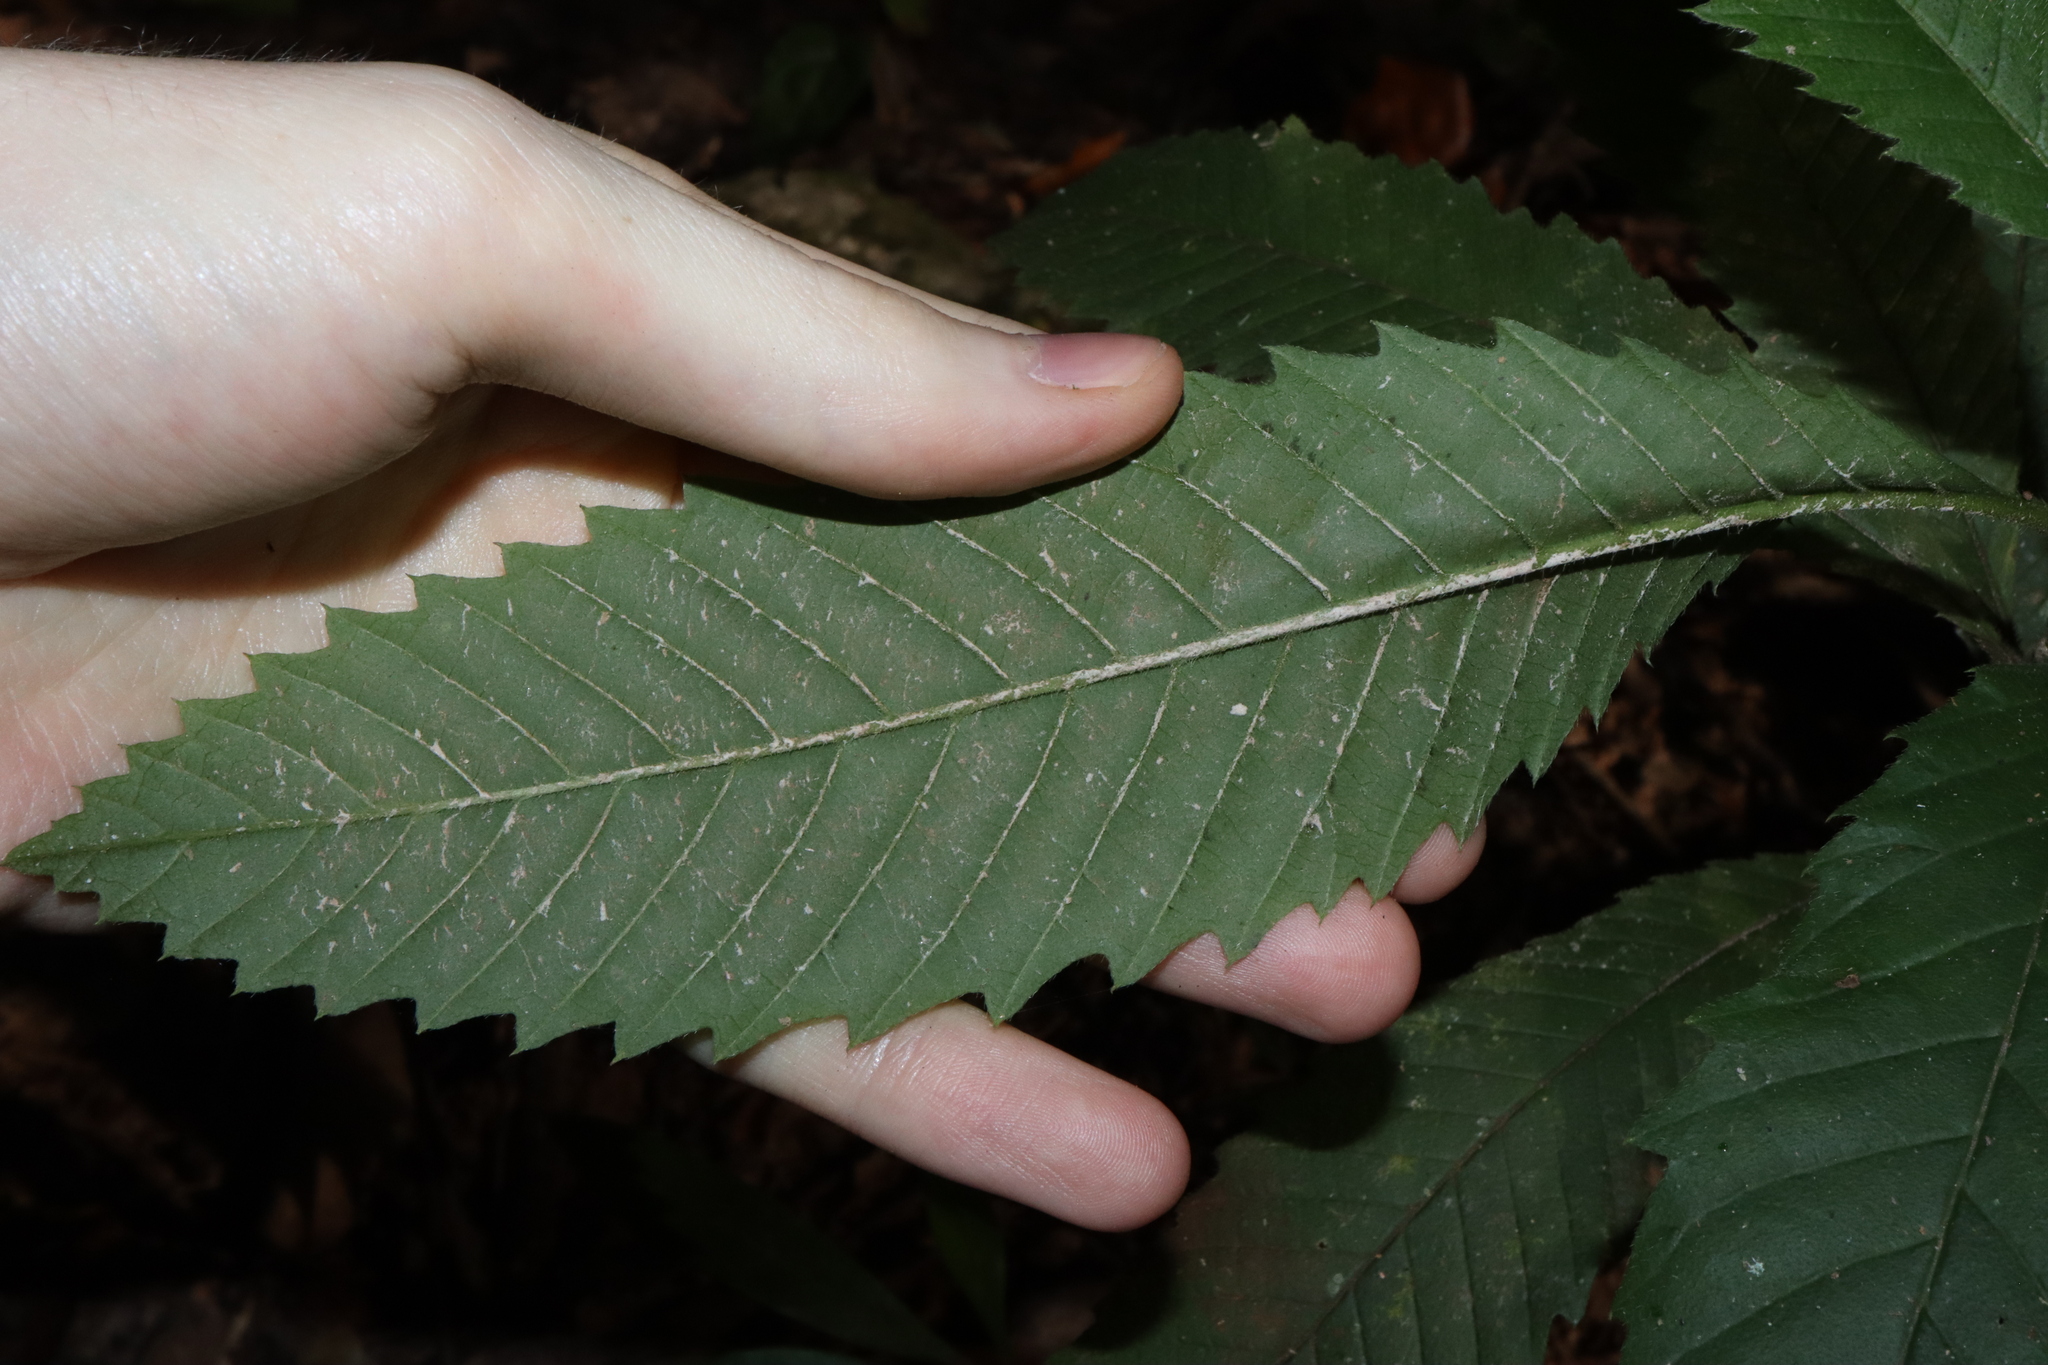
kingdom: Plantae
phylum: Tracheophyta
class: Magnoliopsida
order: Dilleniales
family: Dilleniaceae
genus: Tetracera
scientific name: Tetracera nordtiana
